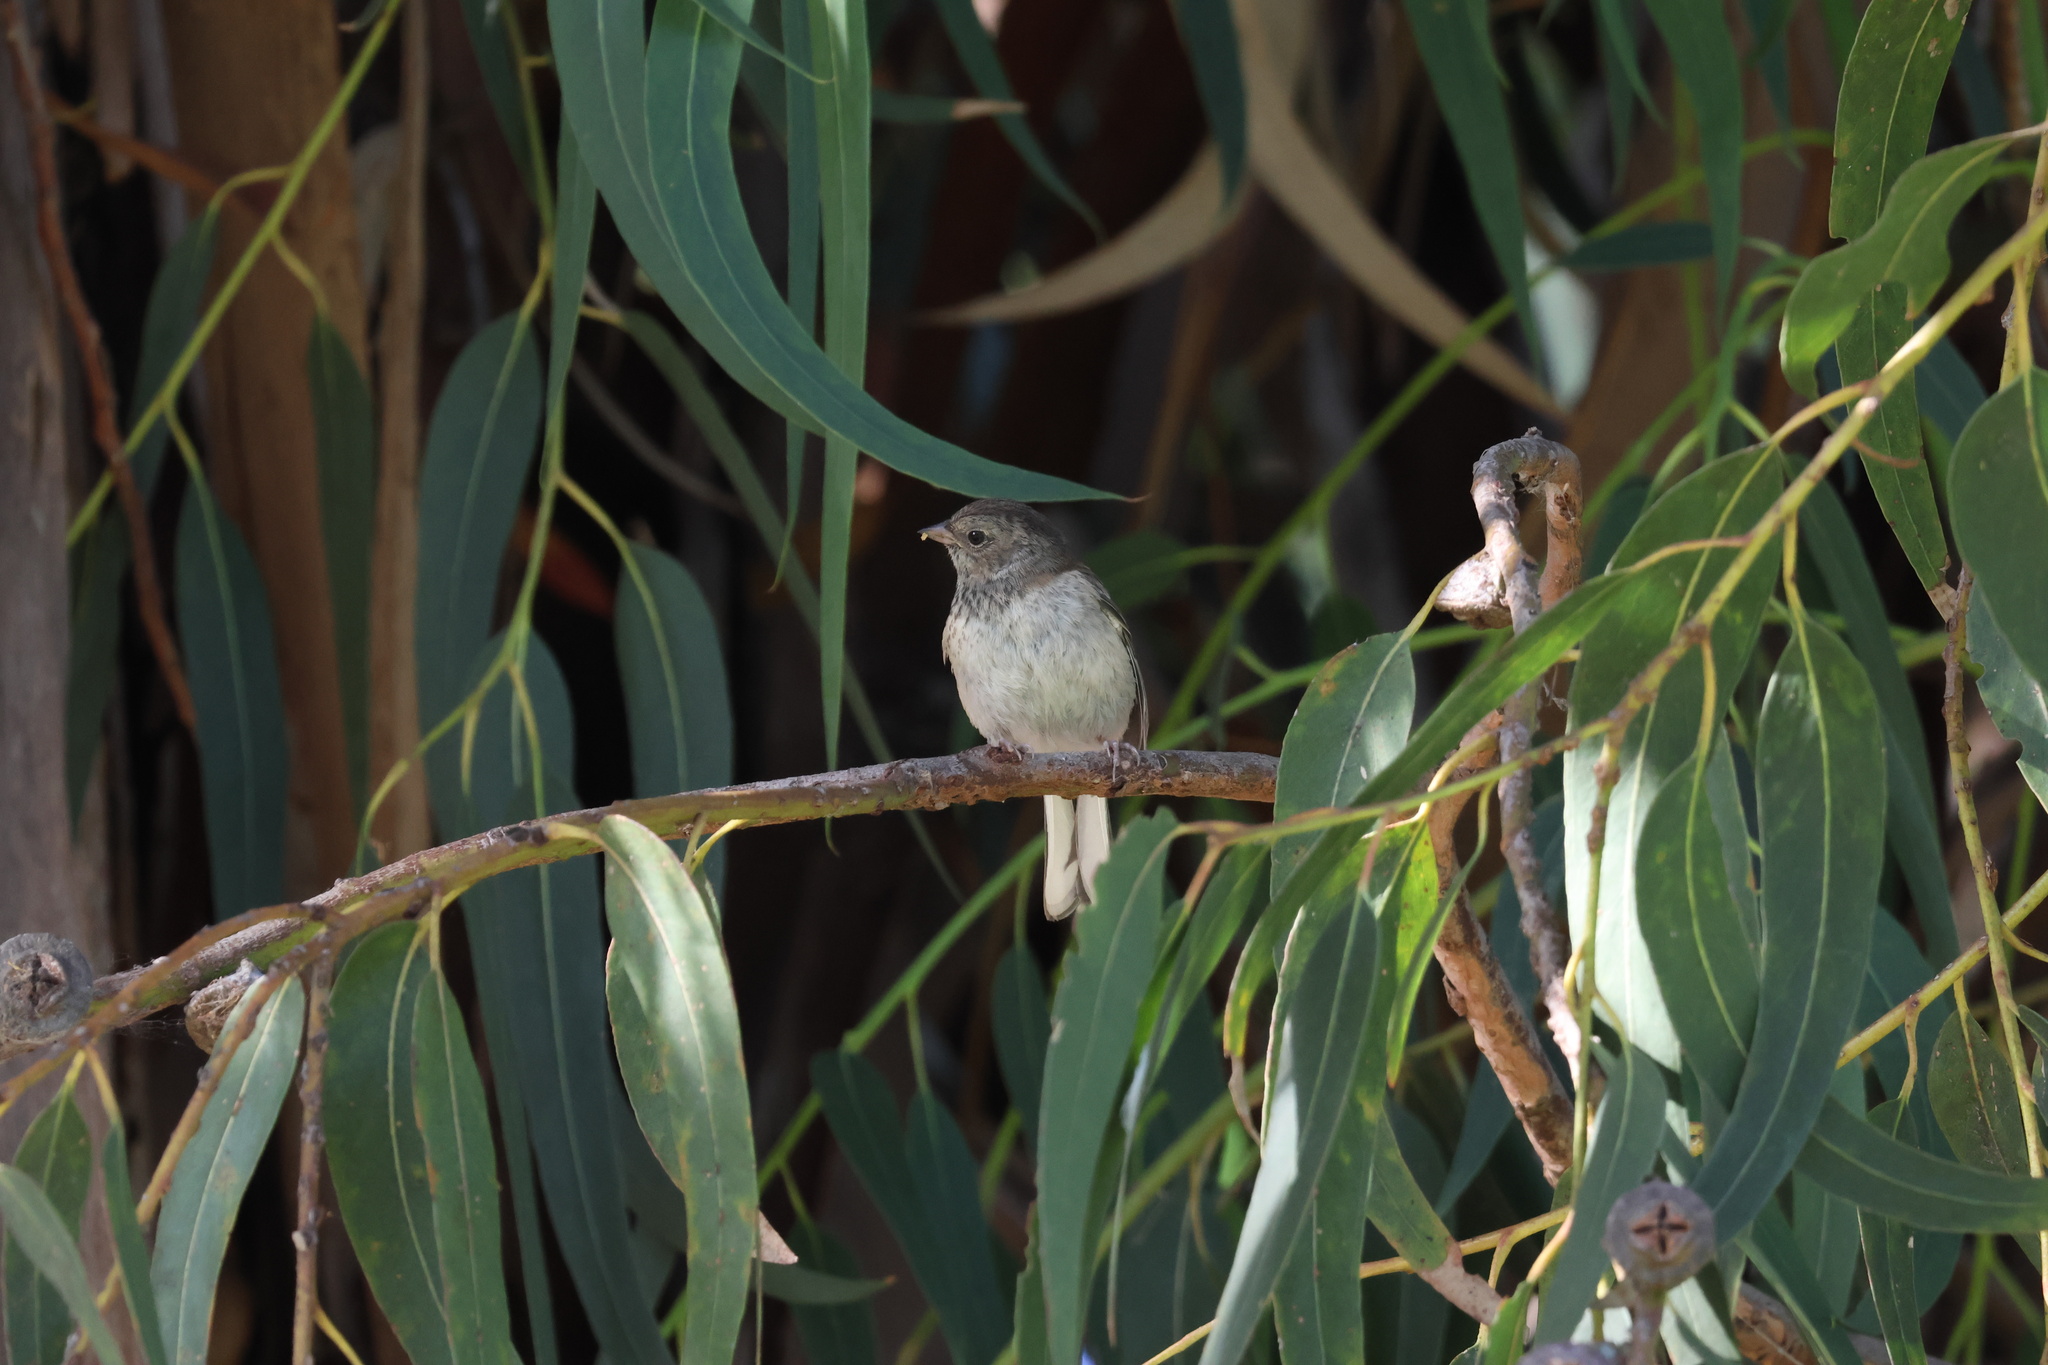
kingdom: Animalia
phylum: Chordata
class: Aves
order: Passeriformes
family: Passerellidae
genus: Junco
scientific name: Junco hyemalis
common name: Dark-eyed junco
